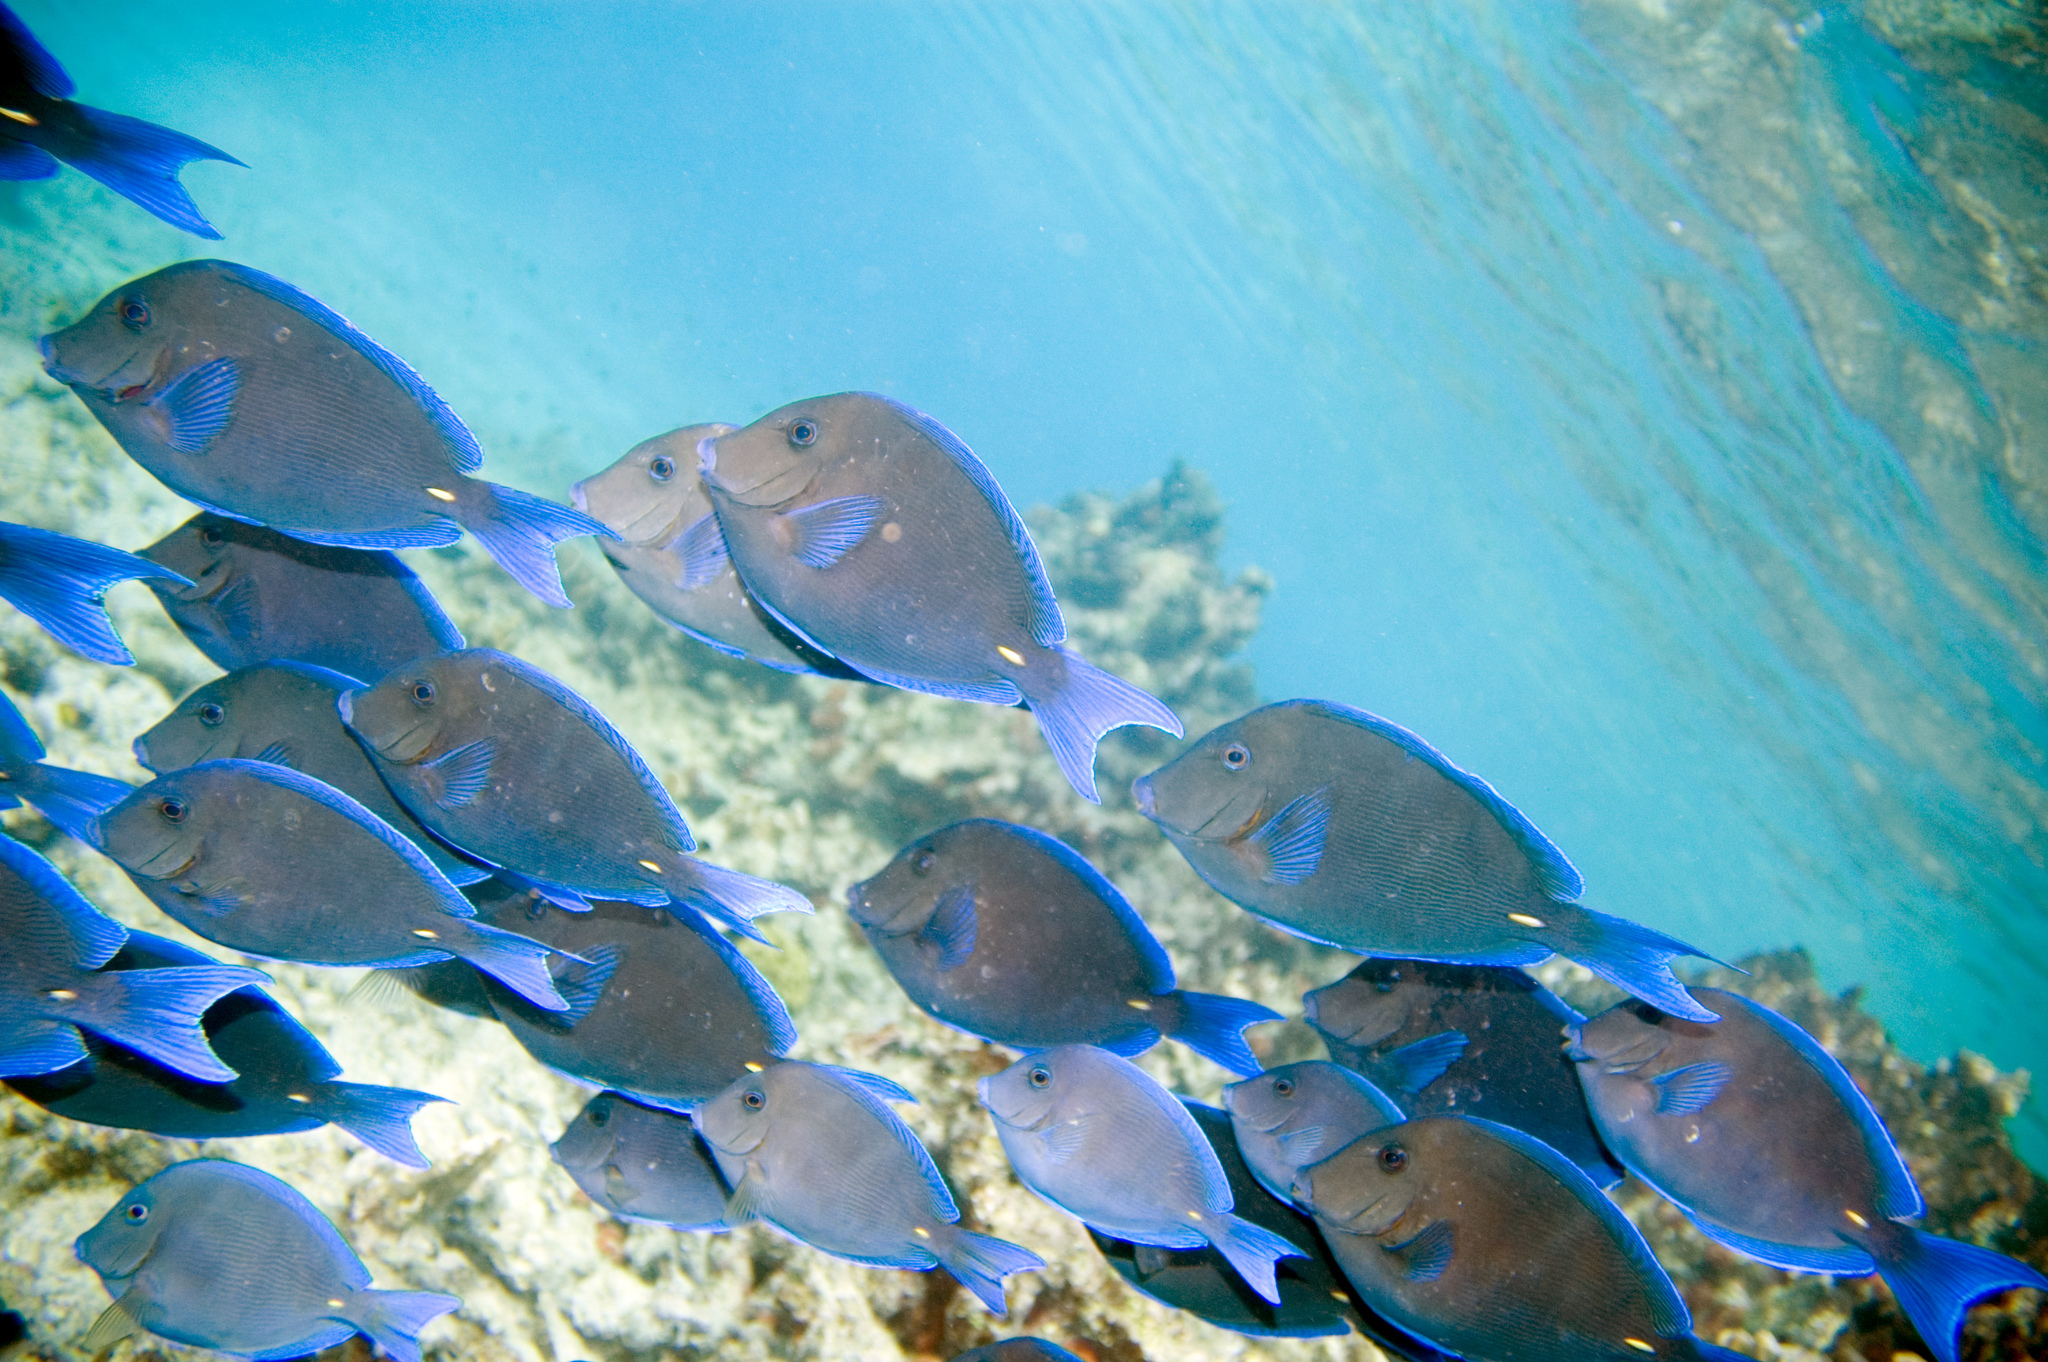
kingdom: Animalia
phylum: Chordata
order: Perciformes
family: Acanthuridae
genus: Acanthurus
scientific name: Acanthurus coeruleus
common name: Blue tang
